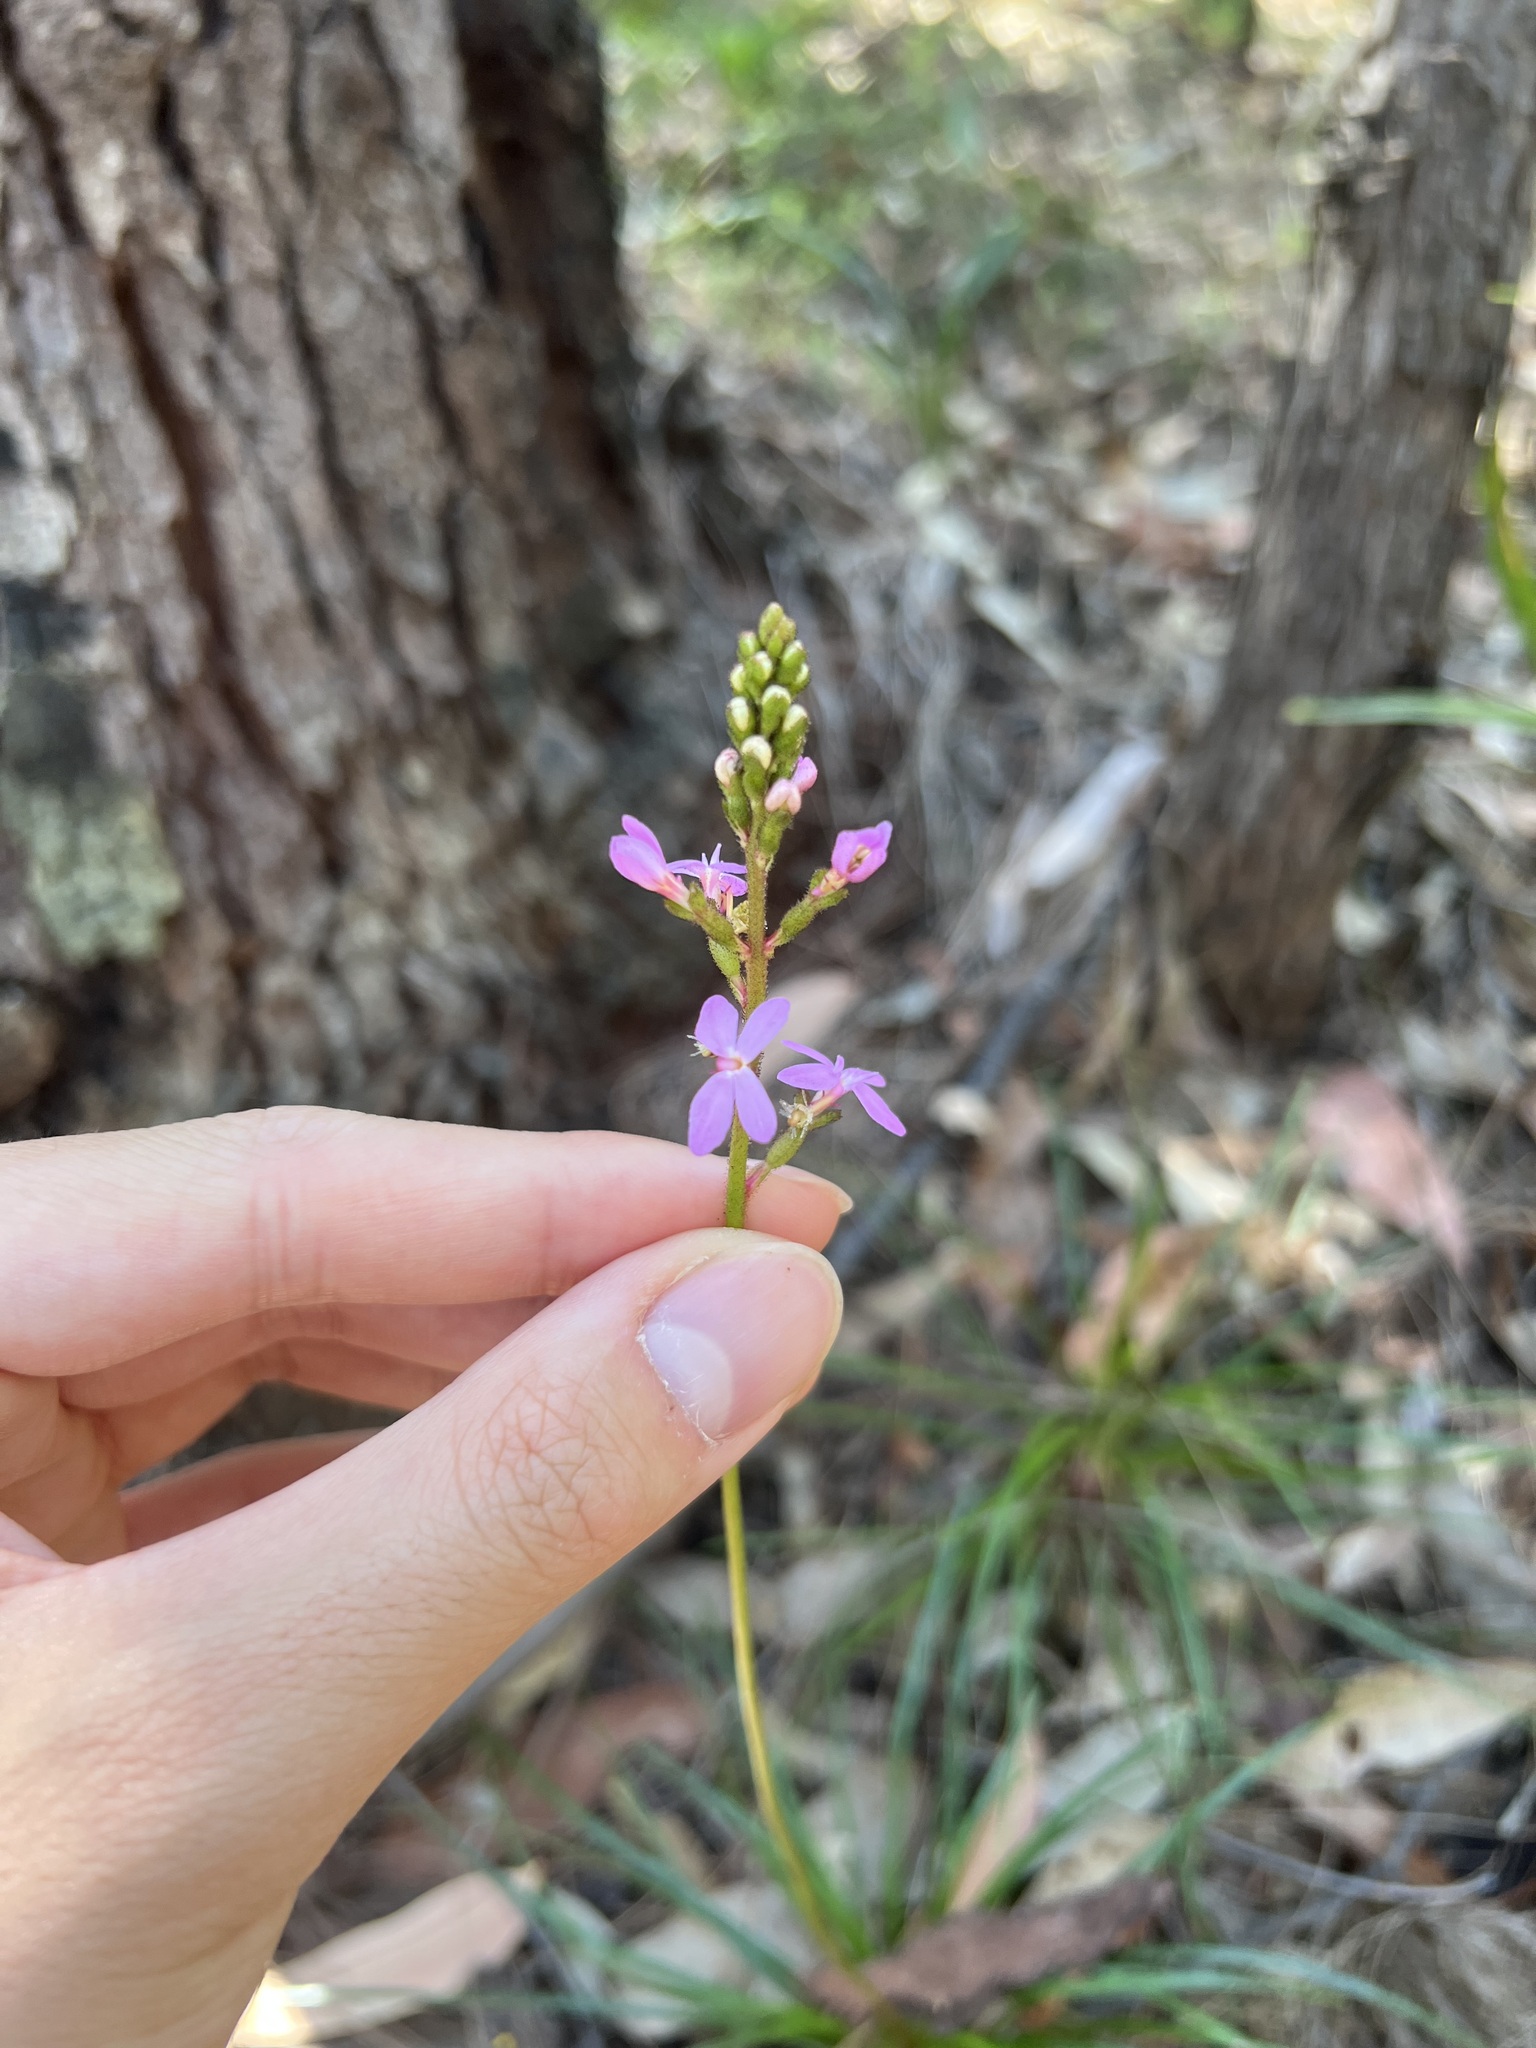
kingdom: Plantae
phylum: Tracheophyta
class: Magnoliopsida
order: Asterales
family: Stylidiaceae
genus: Stylidium
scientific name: Stylidium productum
